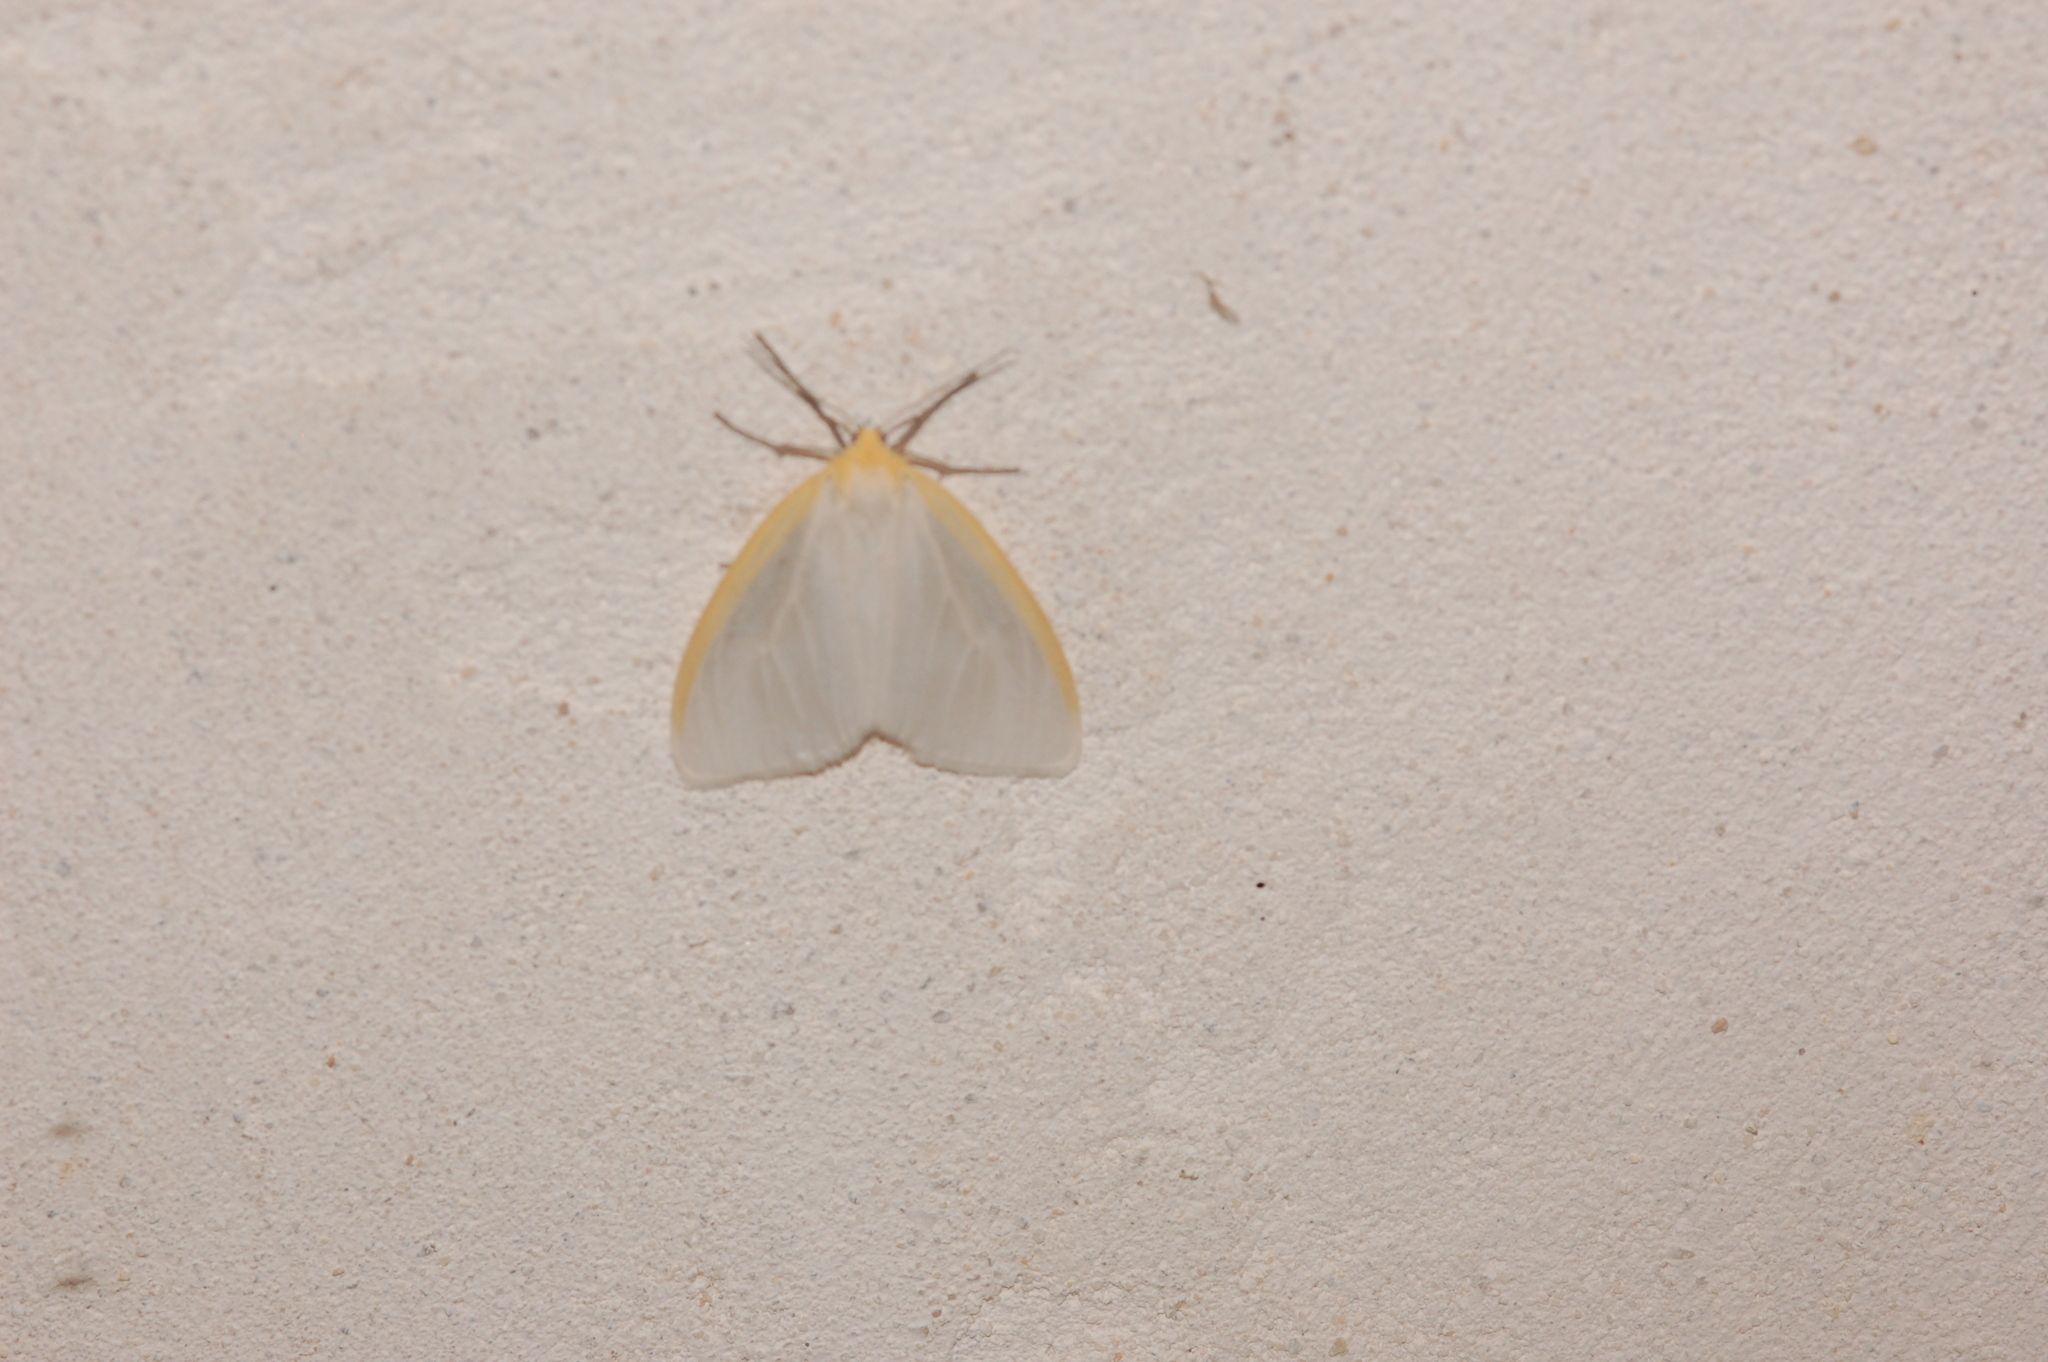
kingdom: Animalia
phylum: Arthropoda
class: Insecta
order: Lepidoptera
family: Erebidae
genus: Cycnia
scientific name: Cycnia tenera
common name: Delicate cycnia moth
